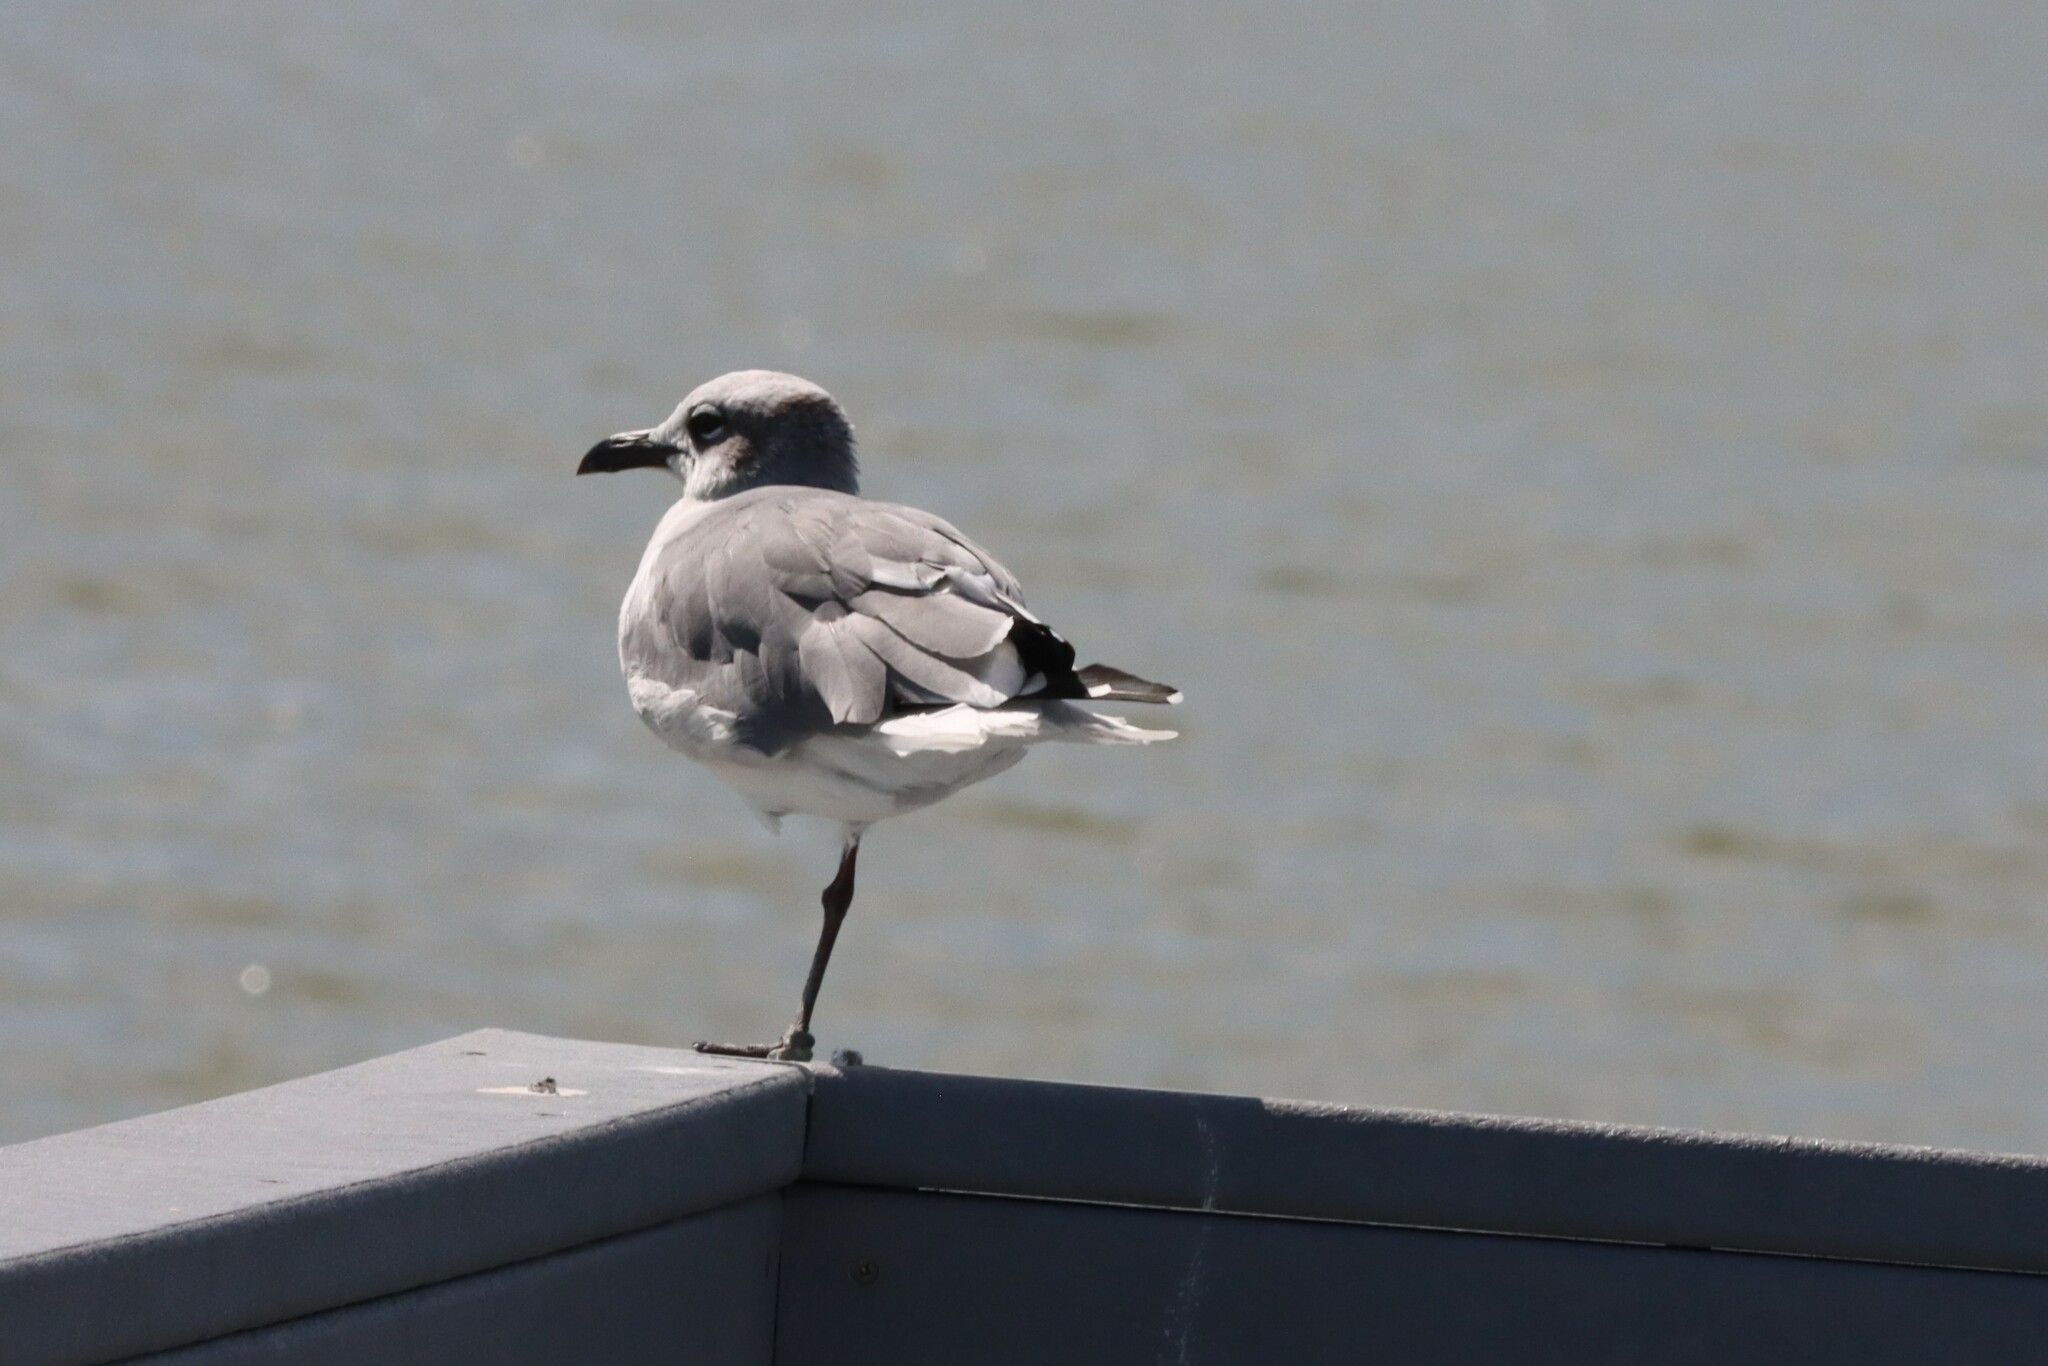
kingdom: Animalia
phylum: Chordata
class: Aves
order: Charadriiformes
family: Laridae
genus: Leucophaeus
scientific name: Leucophaeus atricilla
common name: Laughing gull
